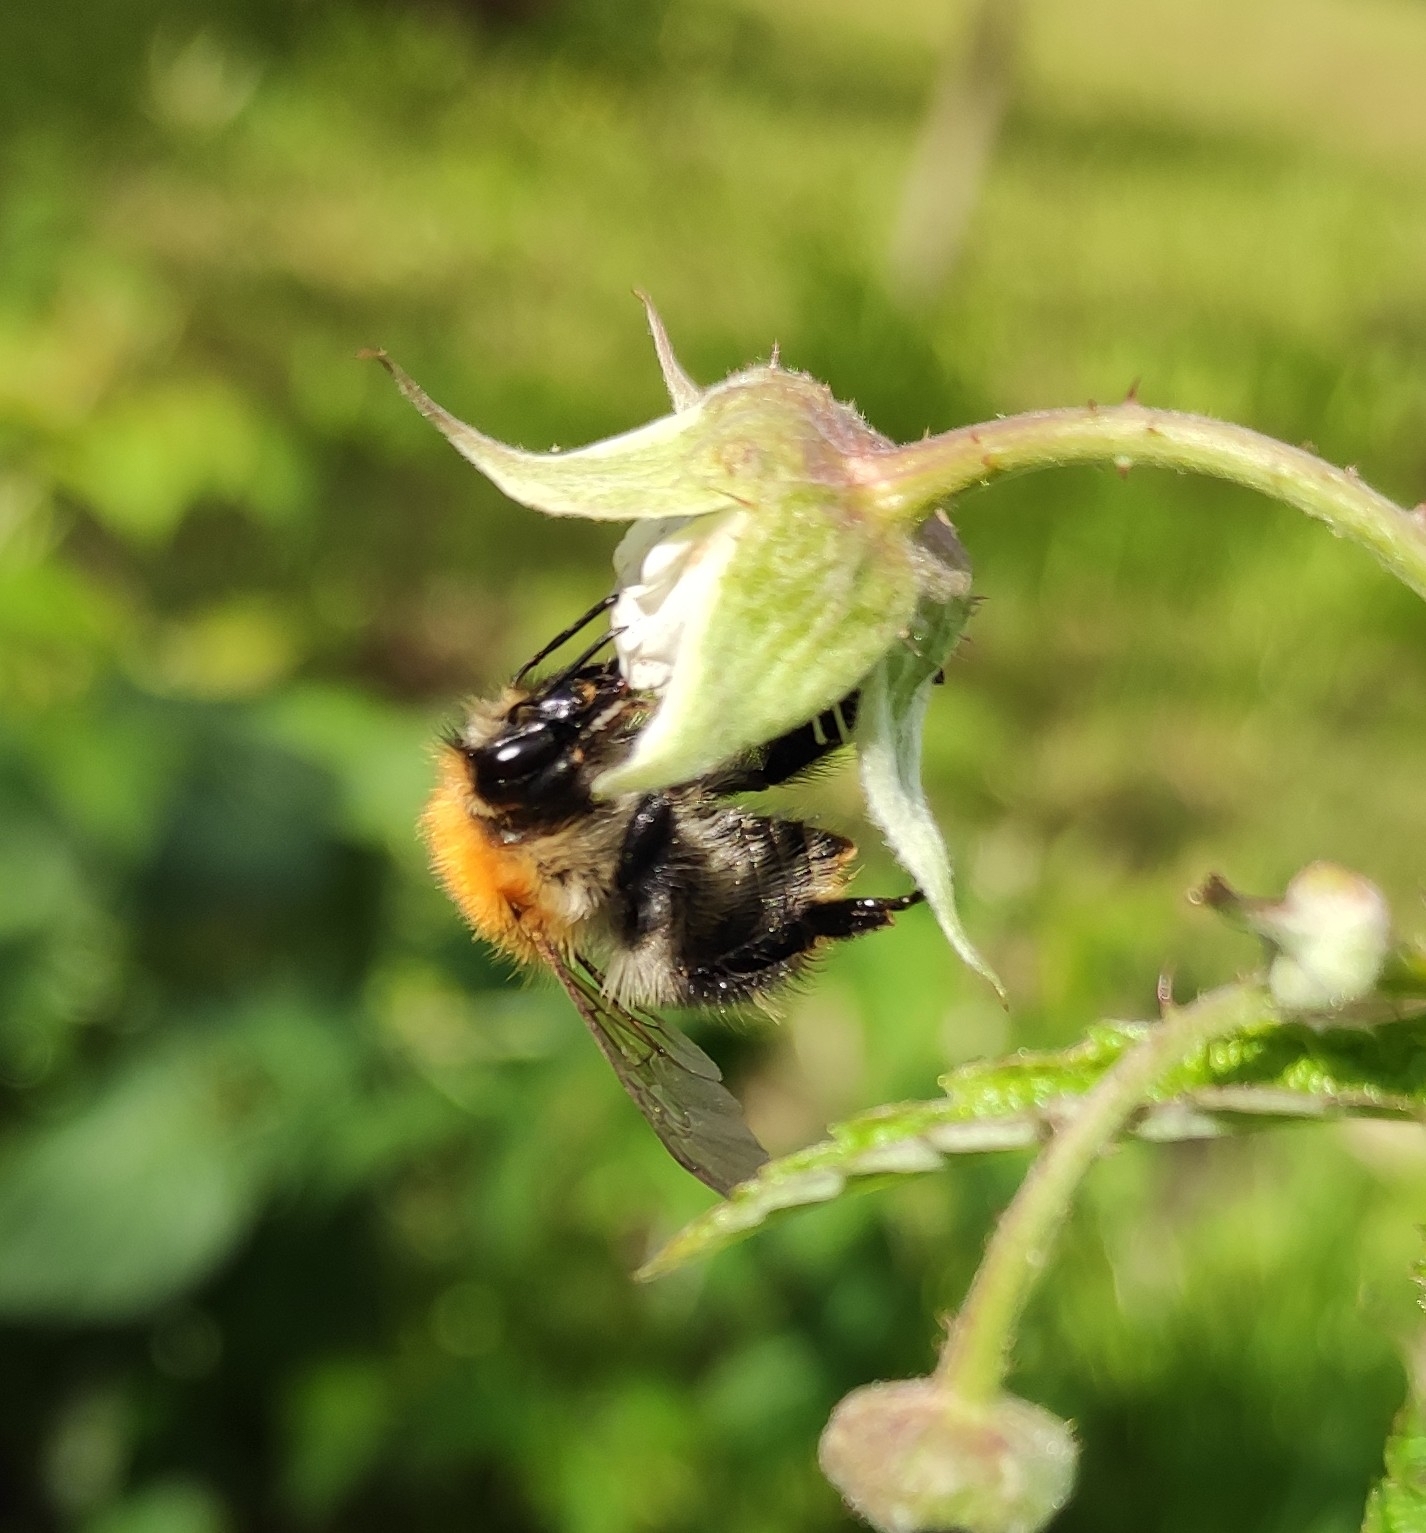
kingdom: Animalia
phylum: Arthropoda
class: Insecta
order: Hymenoptera
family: Apidae
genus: Bombus
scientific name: Bombus pascuorum
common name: Common carder bee
